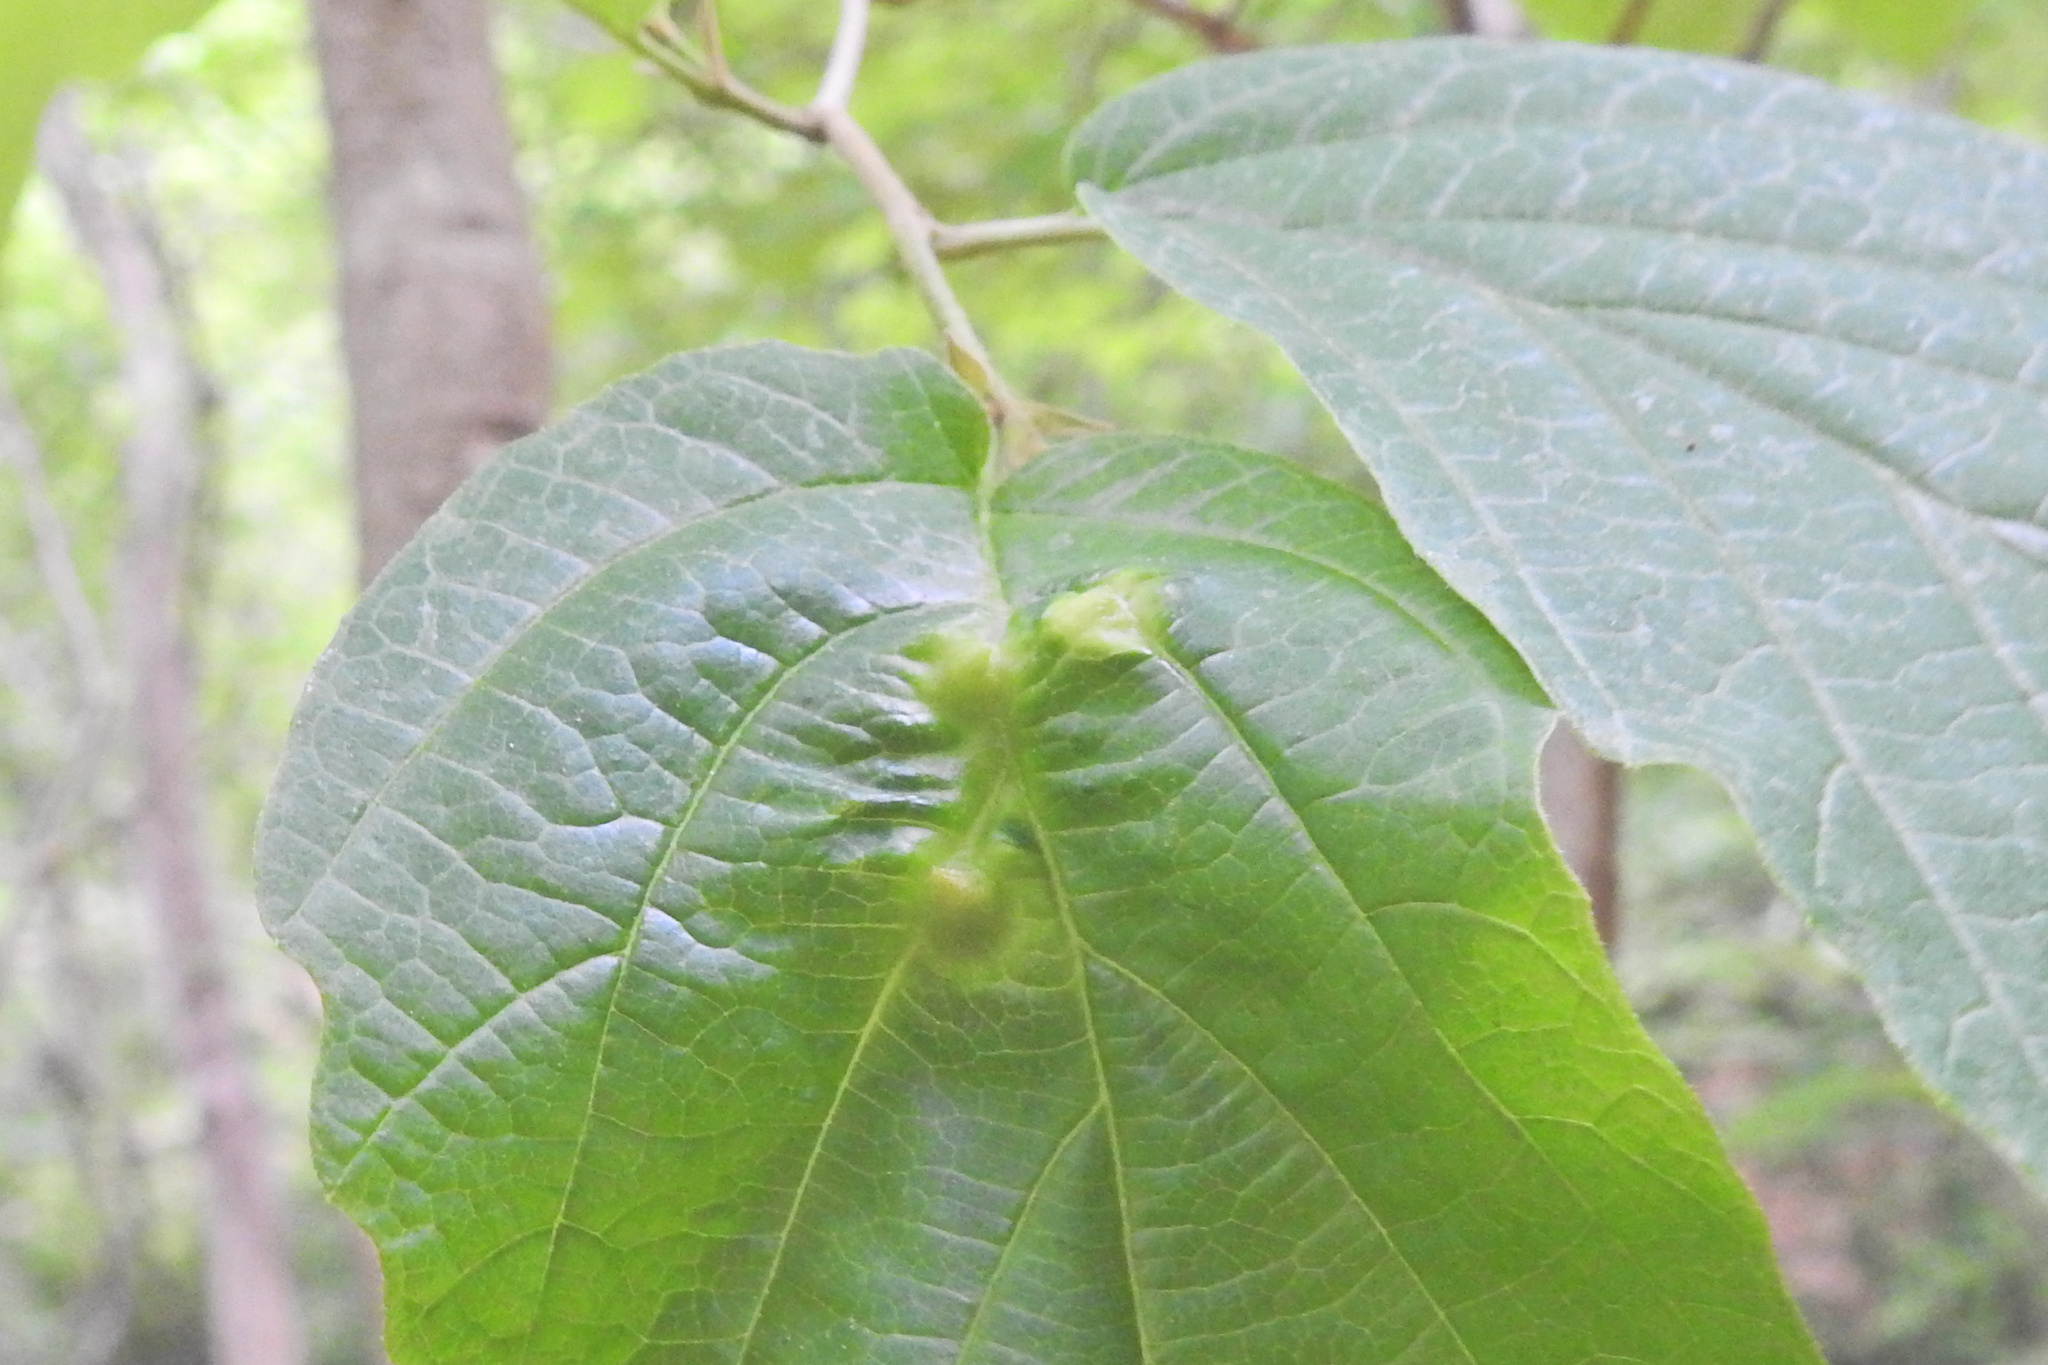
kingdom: Animalia
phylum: Arthropoda
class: Insecta
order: Hemiptera
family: Aphididae
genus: Hormaphis
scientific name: Hormaphis hamamelidis
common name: Witch-hazel cone gall aphid
